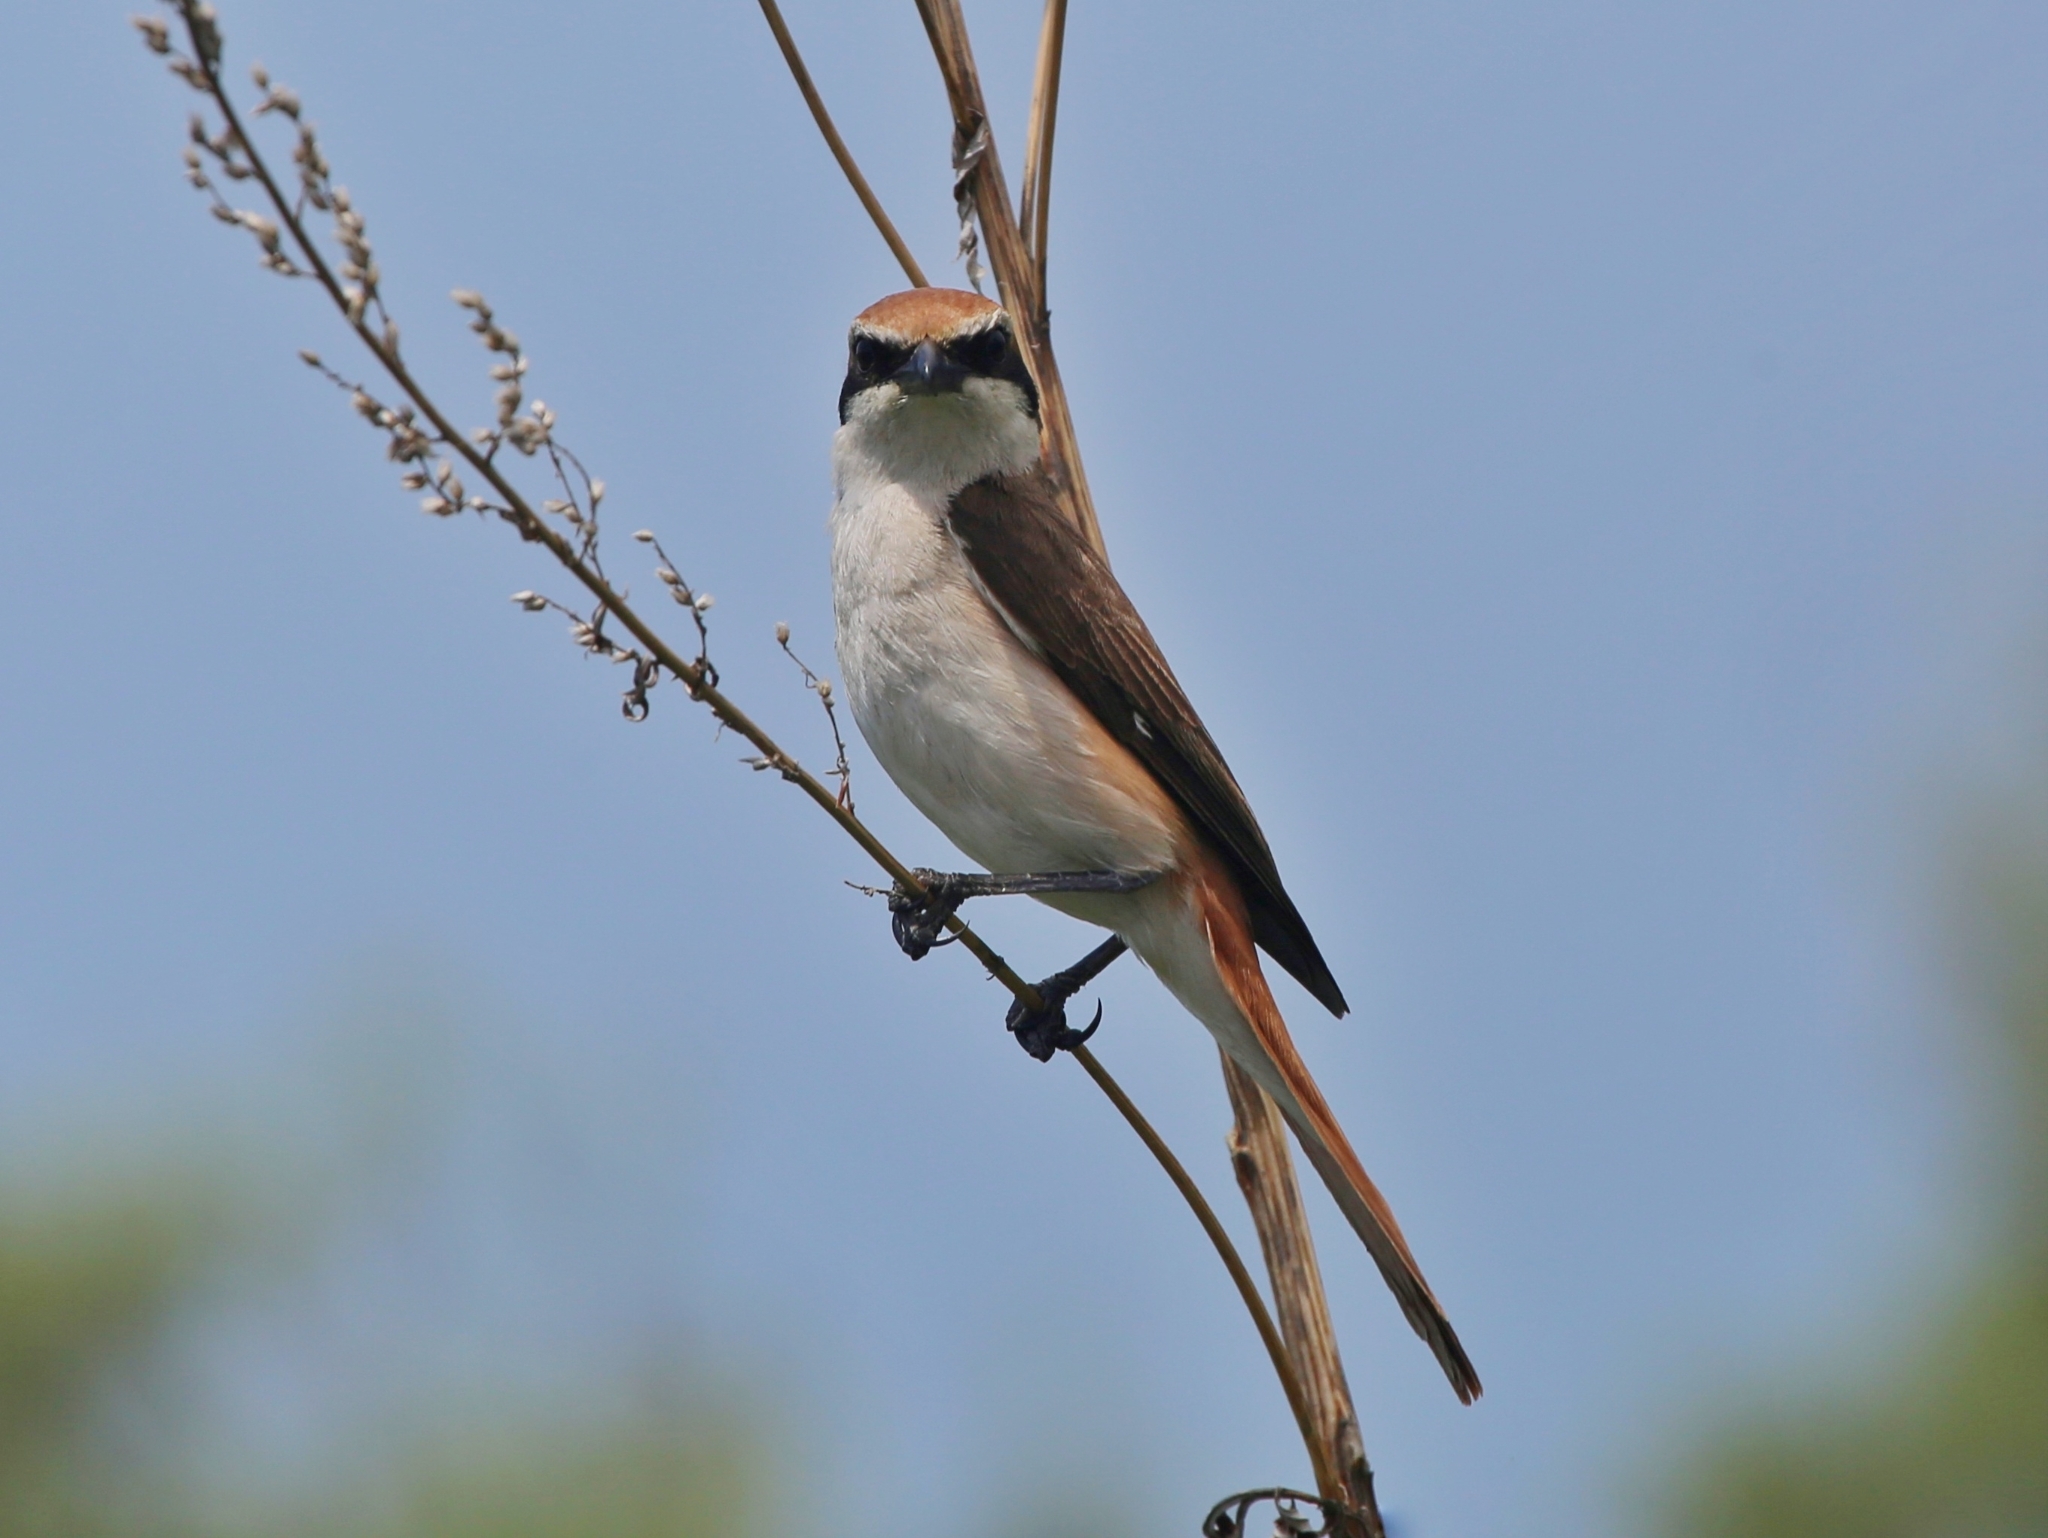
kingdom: Animalia
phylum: Chordata
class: Aves
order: Passeriformes
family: Laniidae
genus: Lanius
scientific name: Lanius phoenicuroides
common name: Red-tailed shrike
